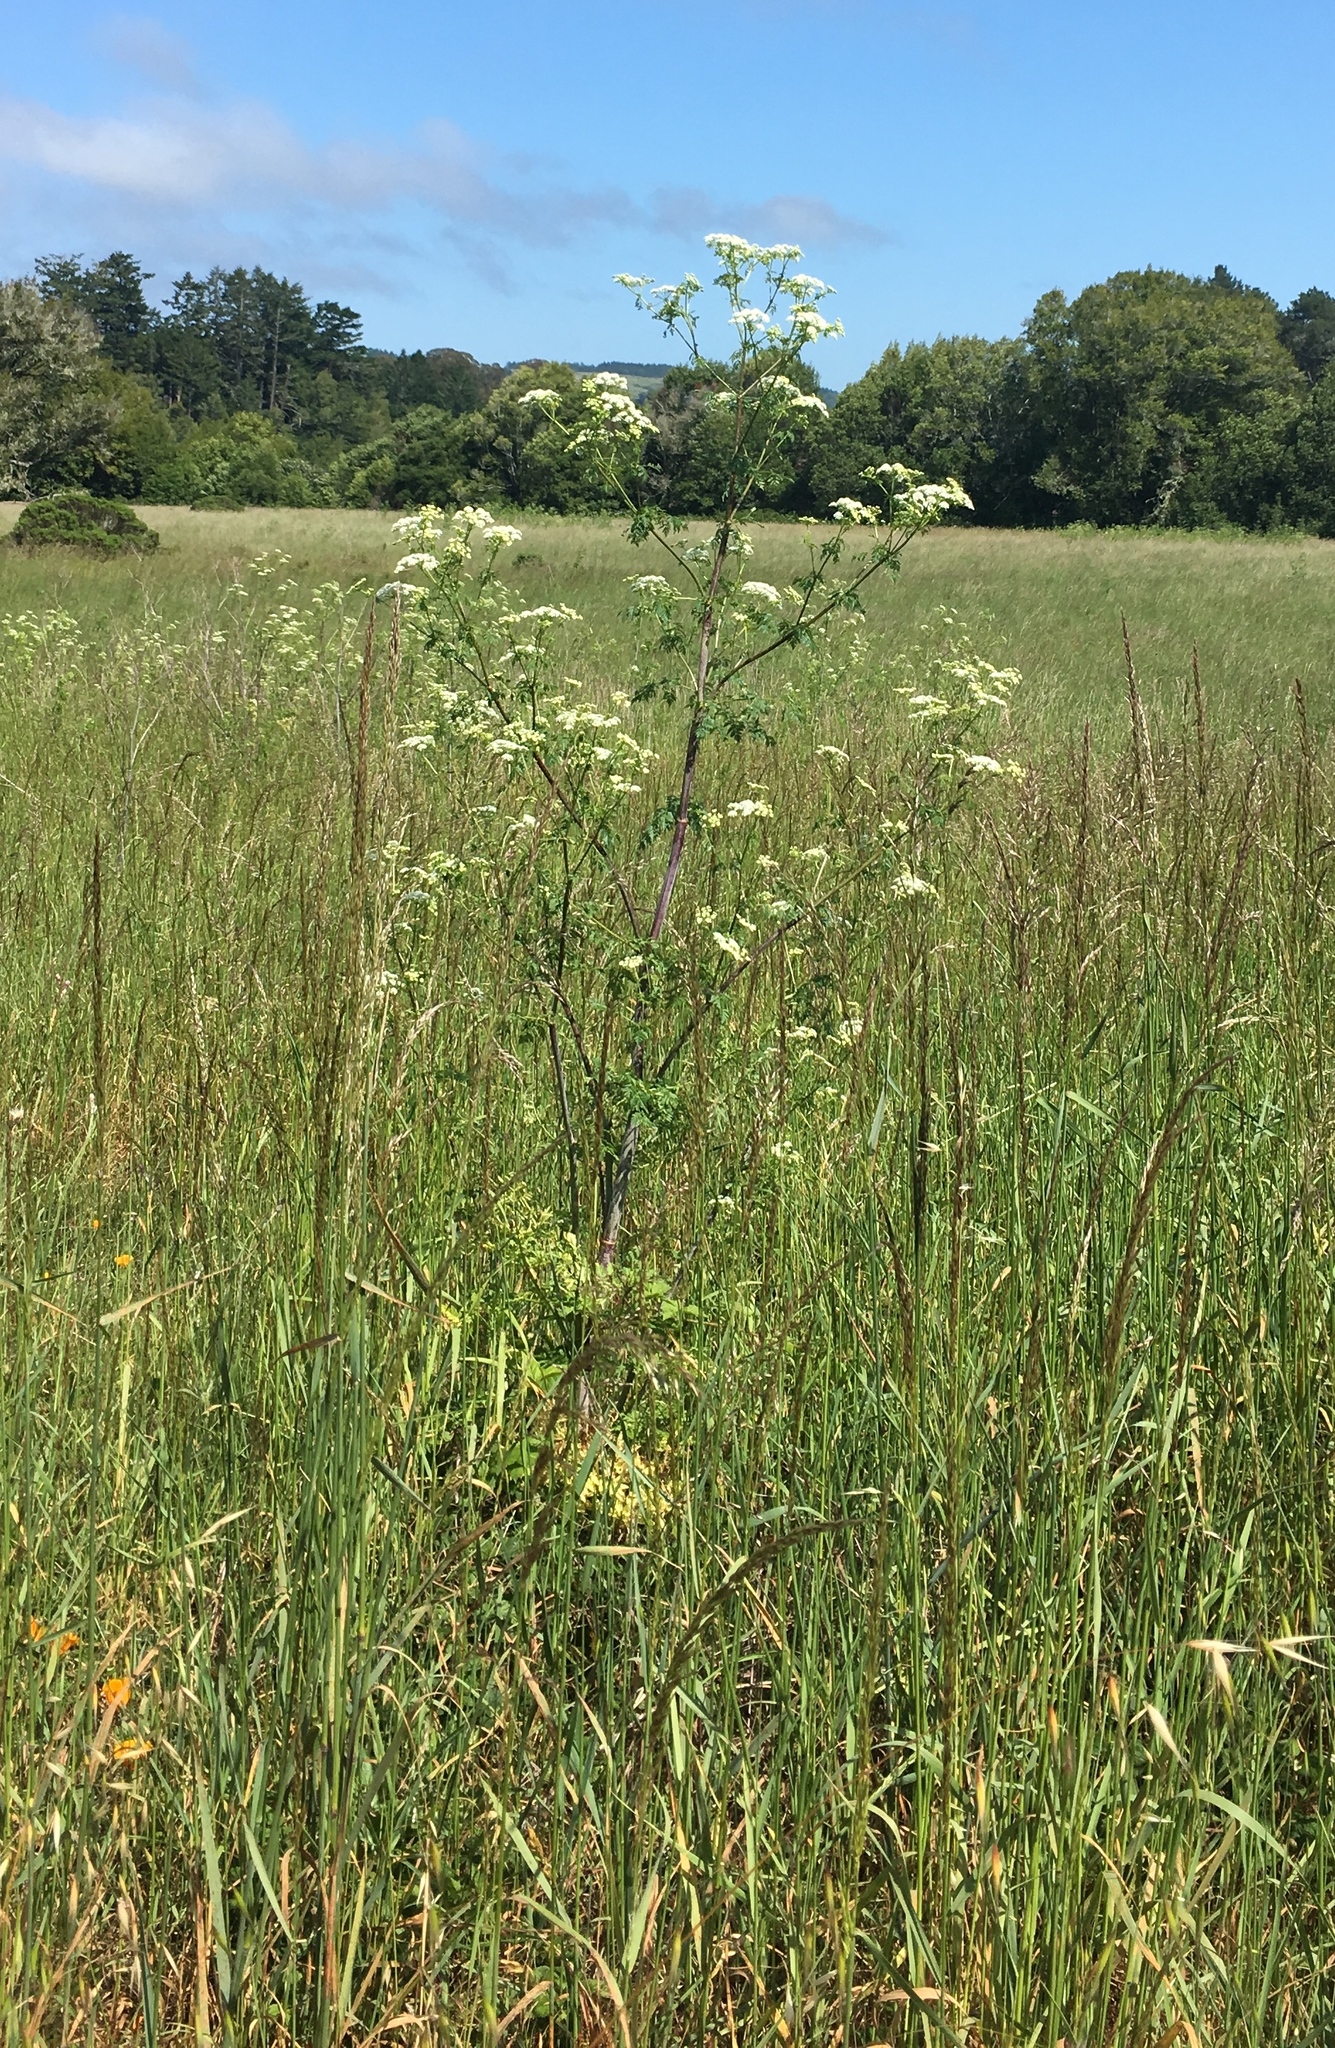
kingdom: Plantae
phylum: Tracheophyta
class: Magnoliopsida
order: Apiales
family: Apiaceae
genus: Conium
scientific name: Conium maculatum
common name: Hemlock
